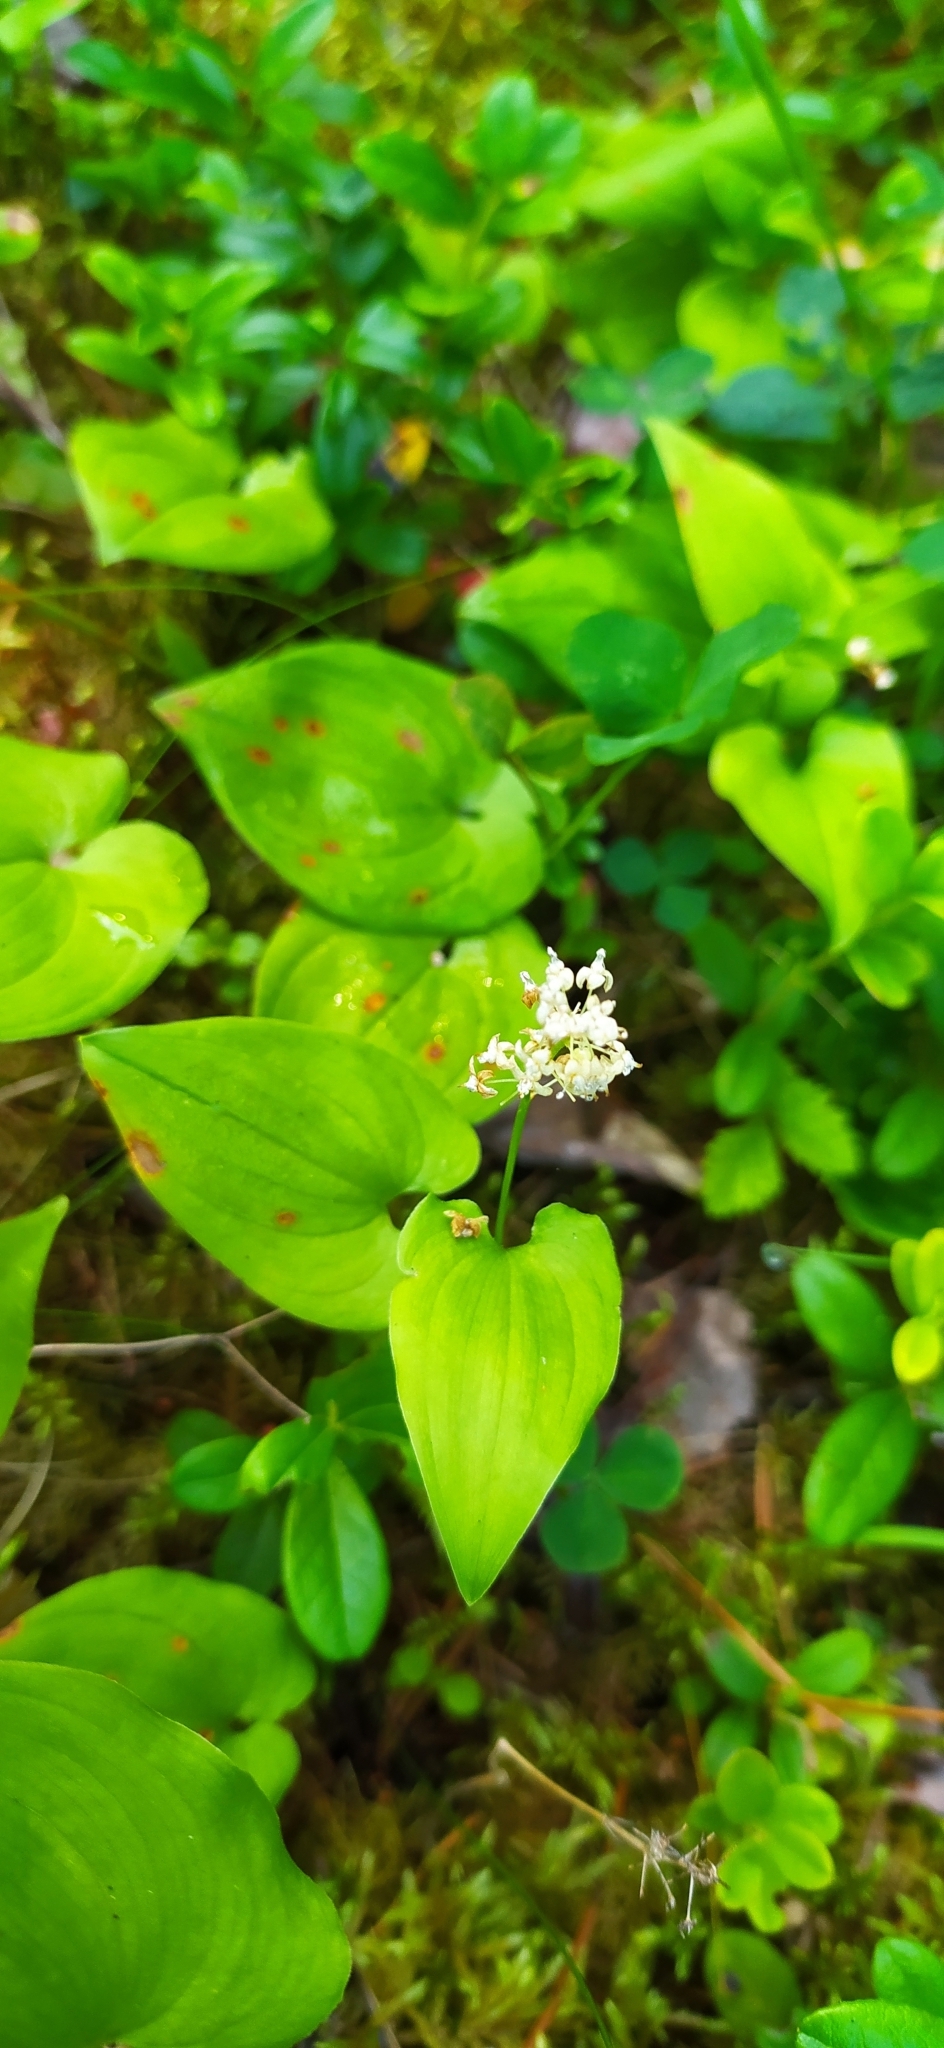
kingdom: Plantae
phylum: Tracheophyta
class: Liliopsida
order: Asparagales
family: Asparagaceae
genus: Maianthemum
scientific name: Maianthemum bifolium
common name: May lily
